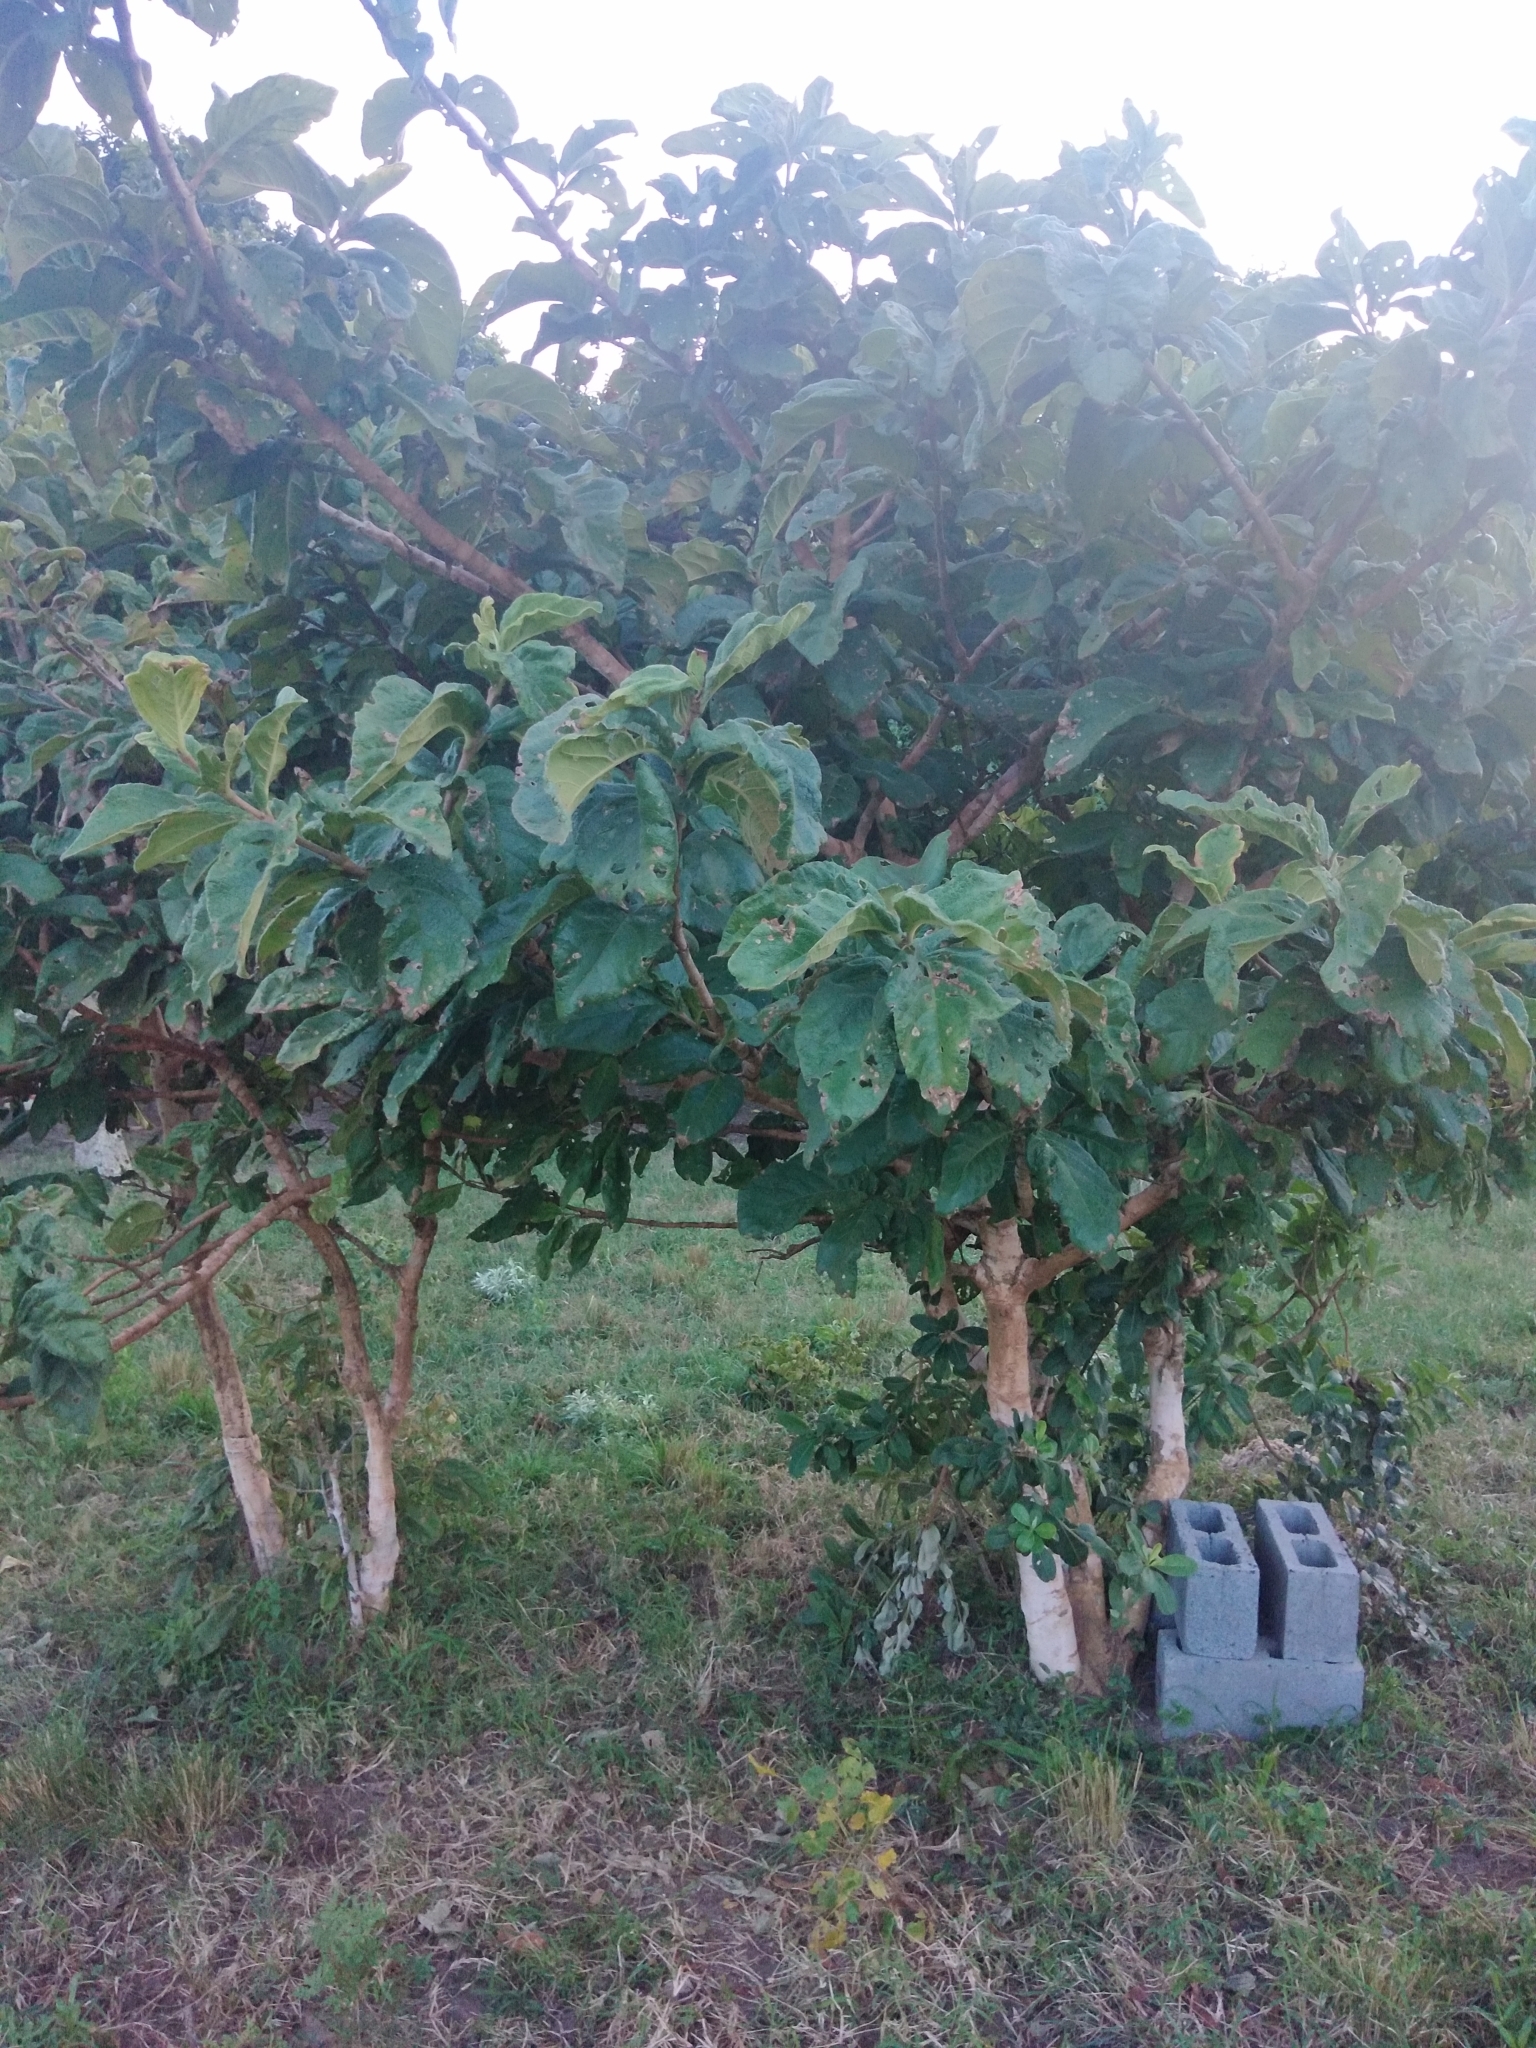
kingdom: Plantae
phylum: Tracheophyta
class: Magnoliopsida
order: Gentianales
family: Rubiaceae
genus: Vangueria
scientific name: Vangueria infausta
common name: Medlar
